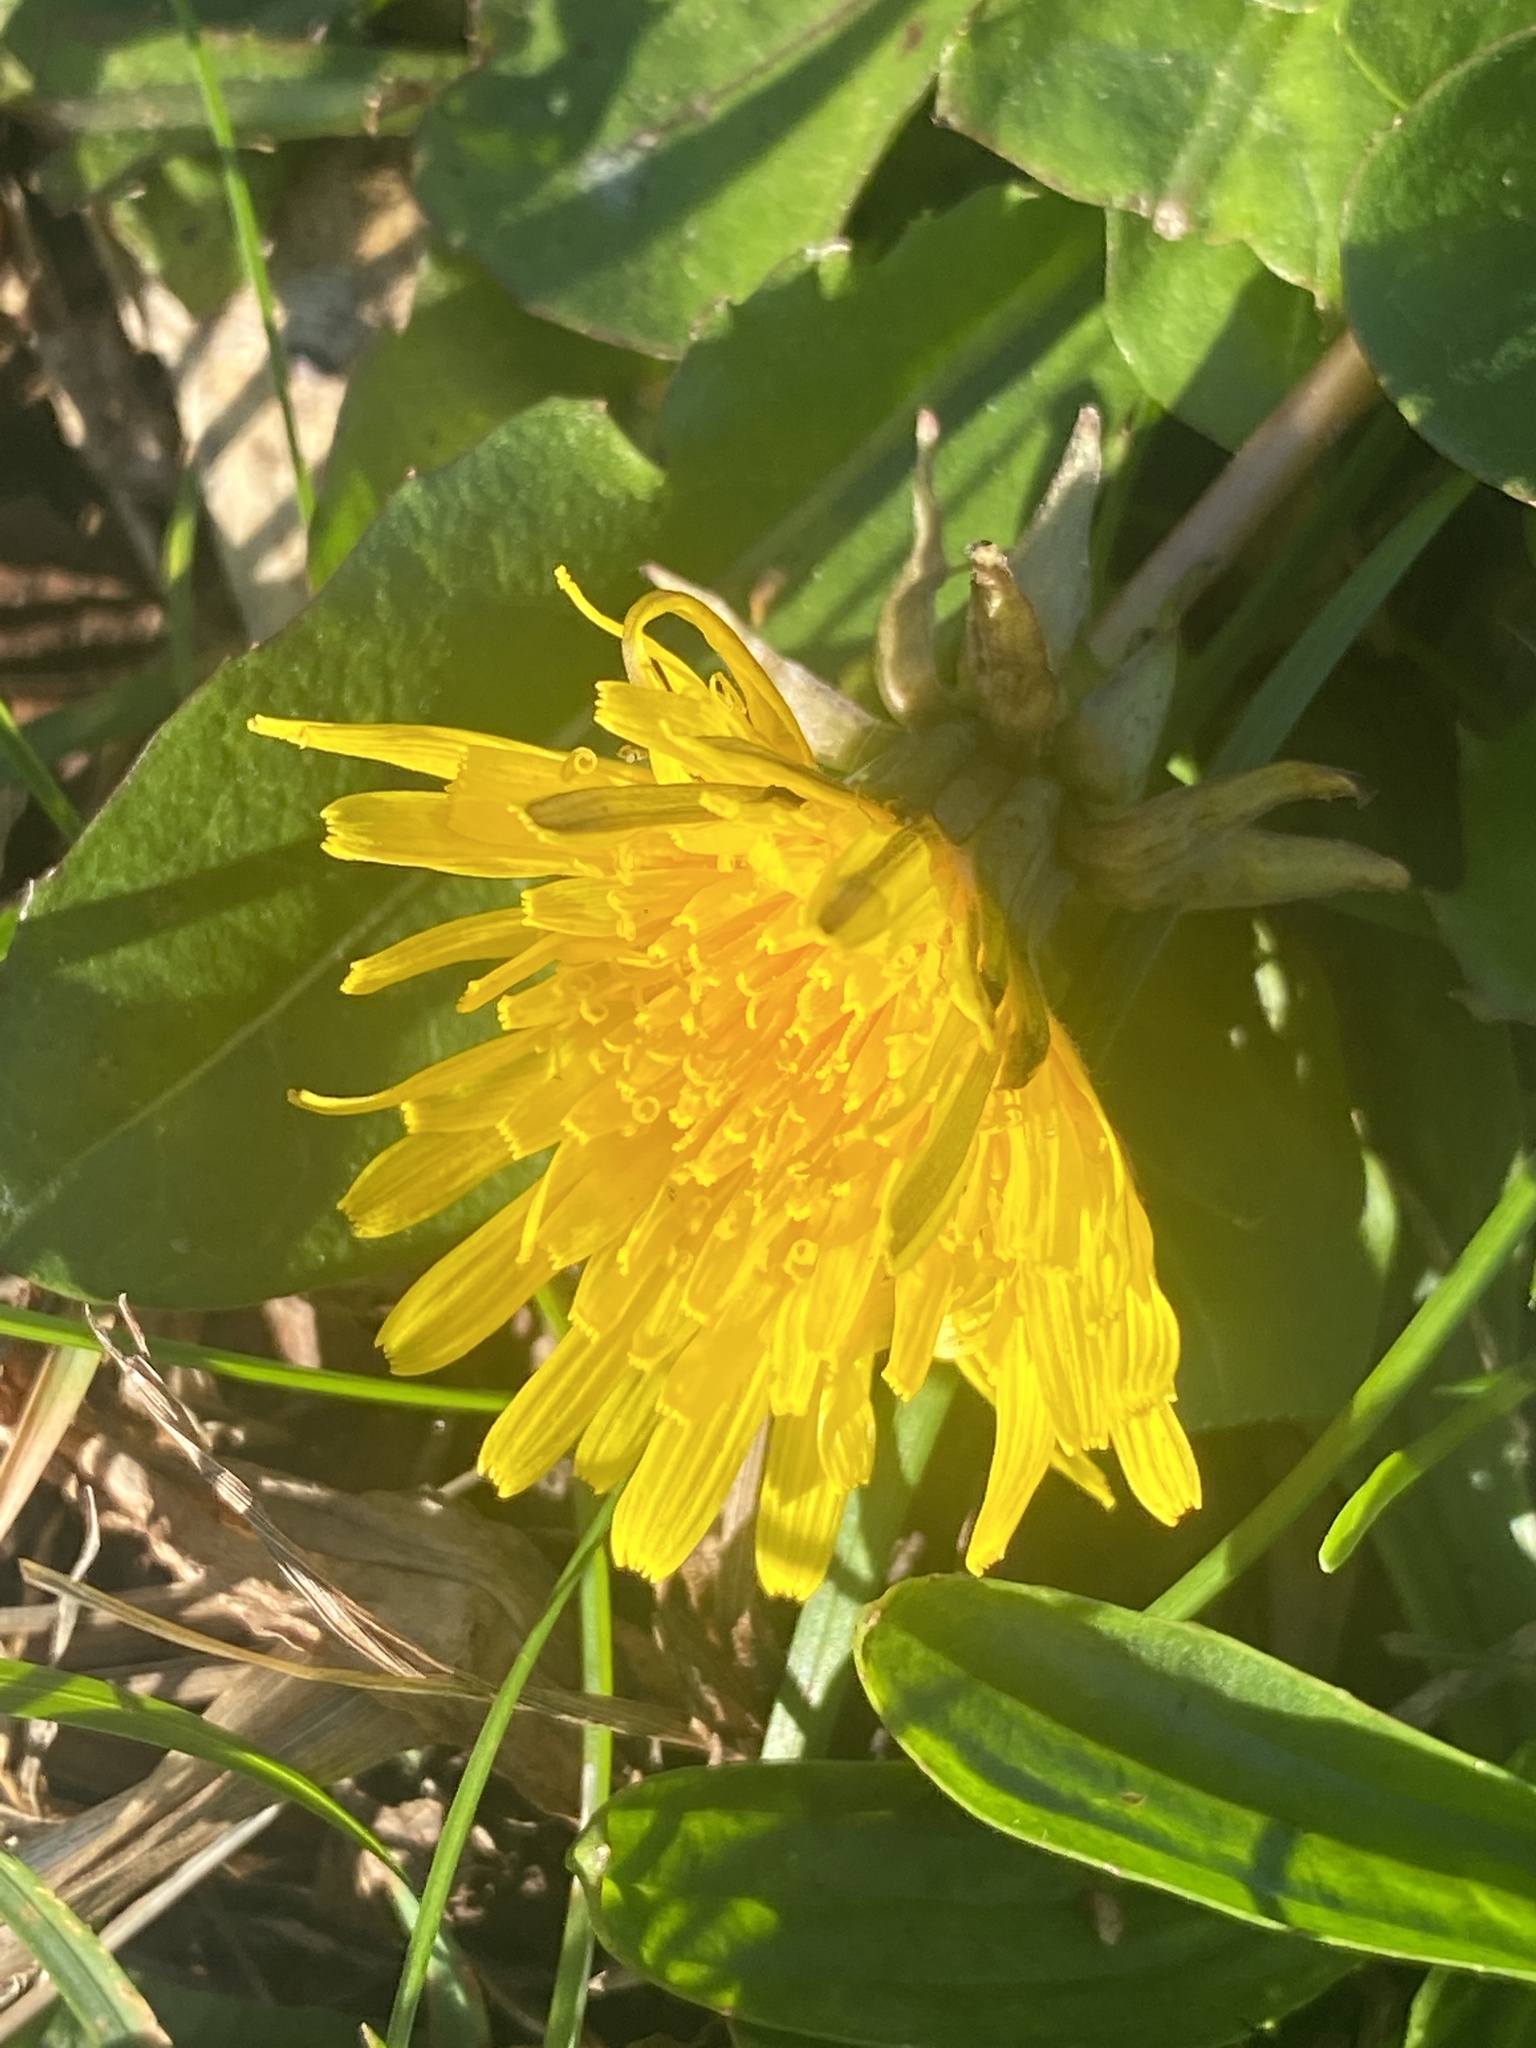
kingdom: Plantae
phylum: Tracheophyta
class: Magnoliopsida
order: Asterales
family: Asteraceae
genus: Taraxacum
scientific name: Taraxacum officinale
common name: Common dandelion
